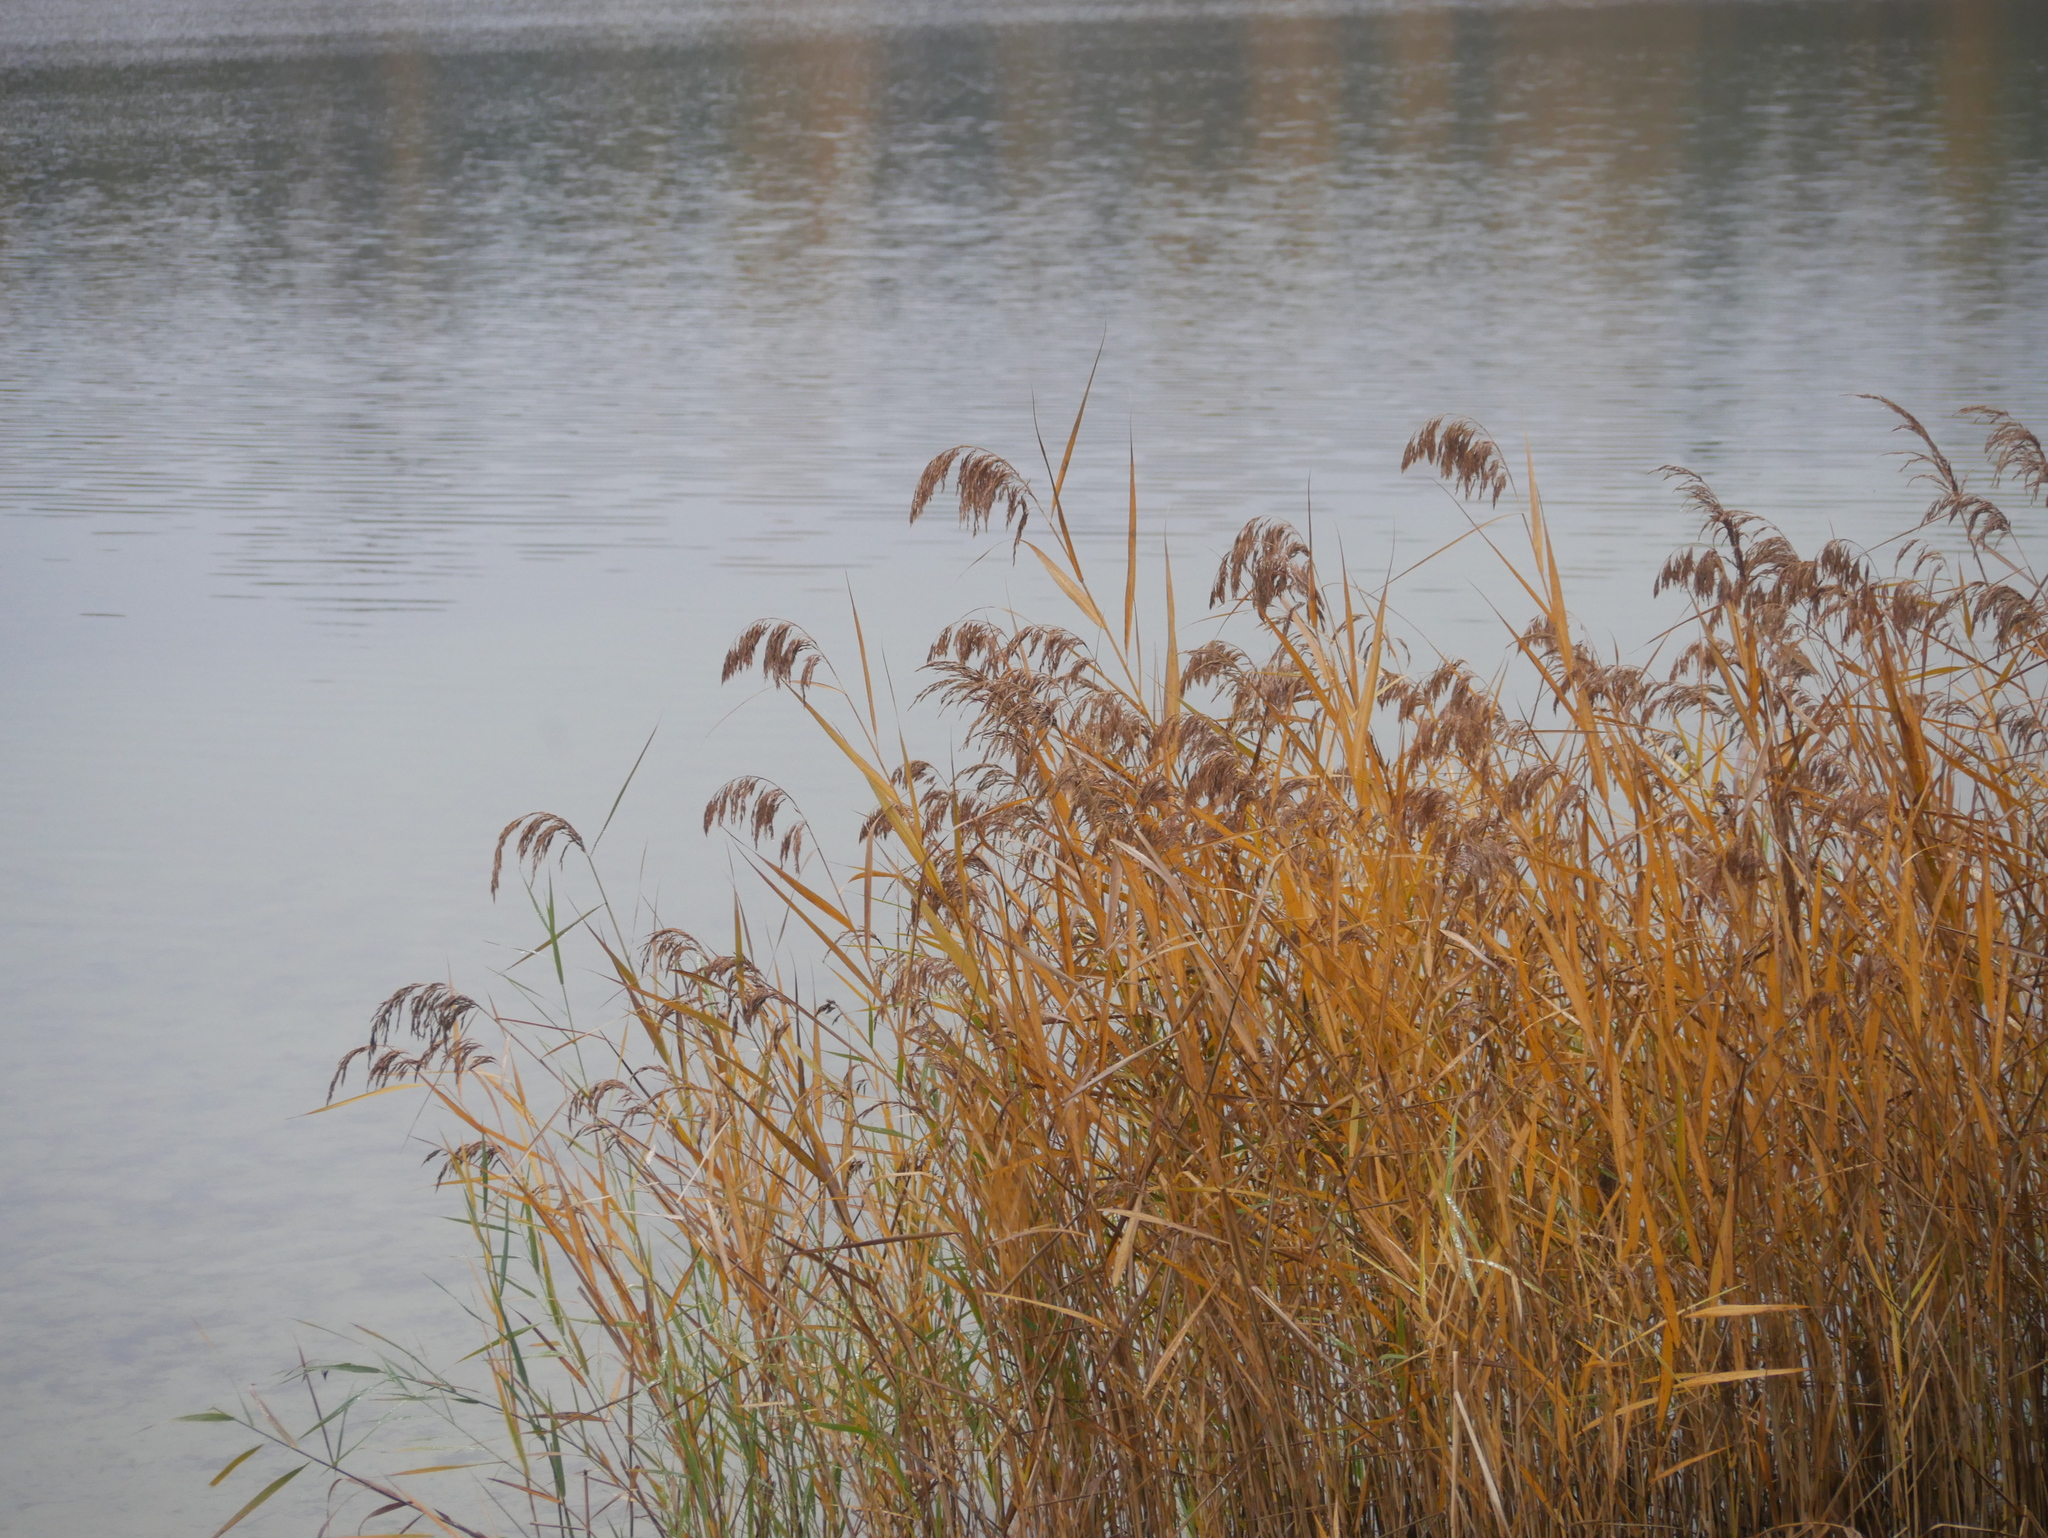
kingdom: Plantae
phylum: Tracheophyta
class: Liliopsida
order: Poales
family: Poaceae
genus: Phragmites
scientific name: Phragmites australis
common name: Common reed
